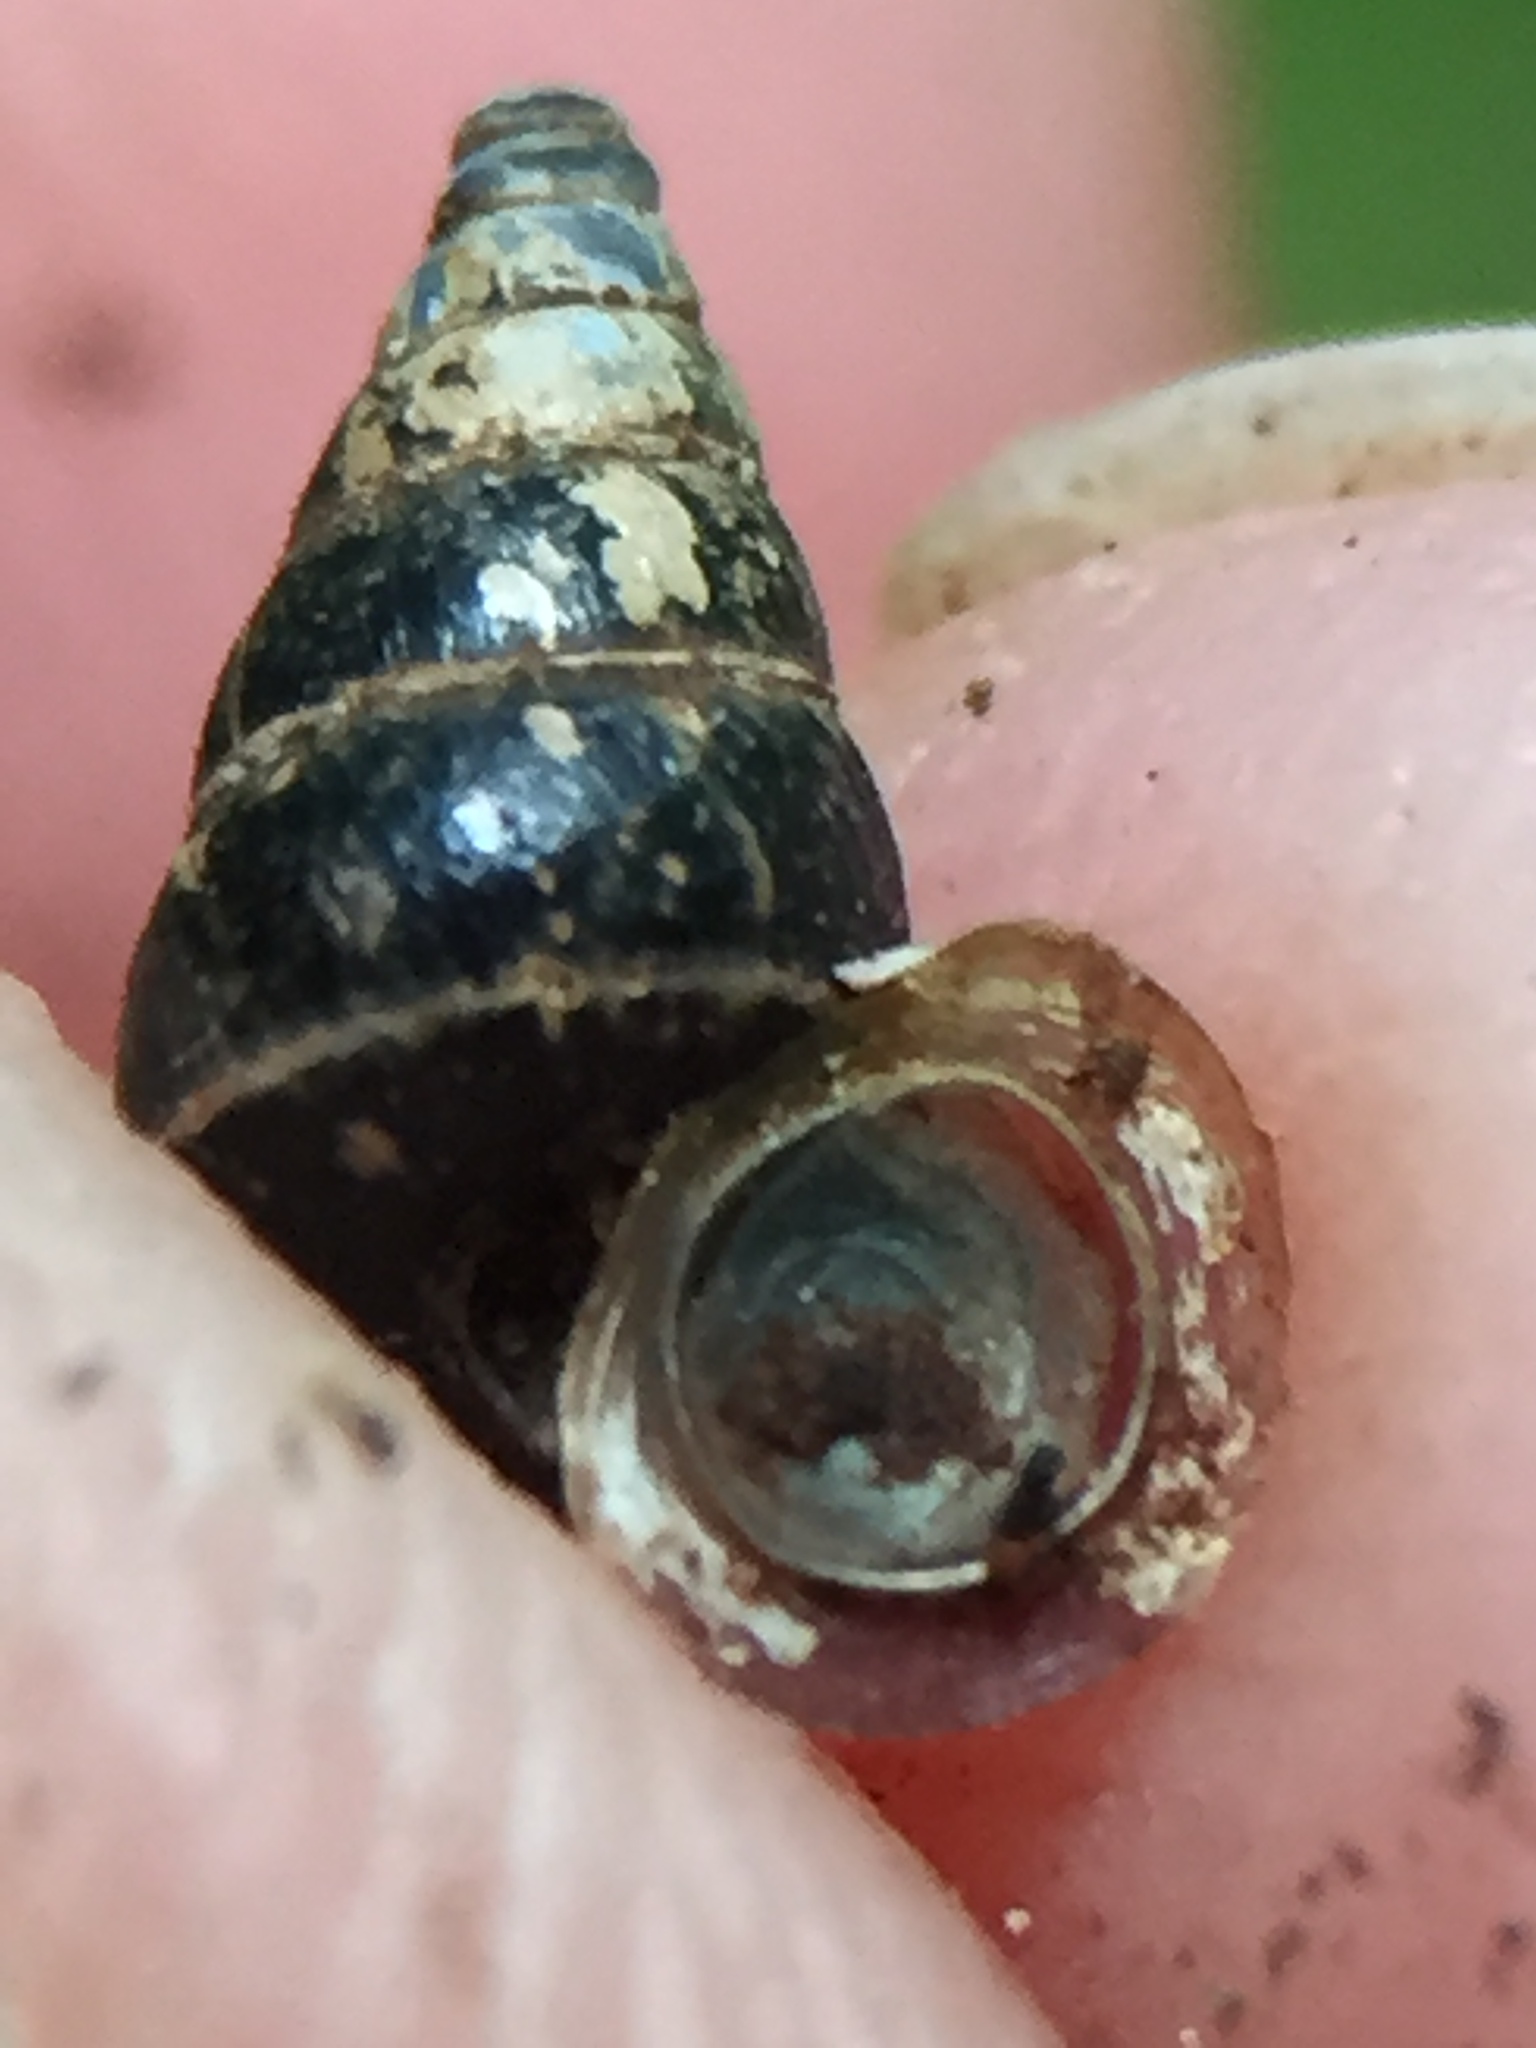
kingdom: Animalia
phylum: Mollusca
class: Gastropoda
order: Architaenioglossa
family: Pupinidae
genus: Liarea
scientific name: Liarea hochstetteri
